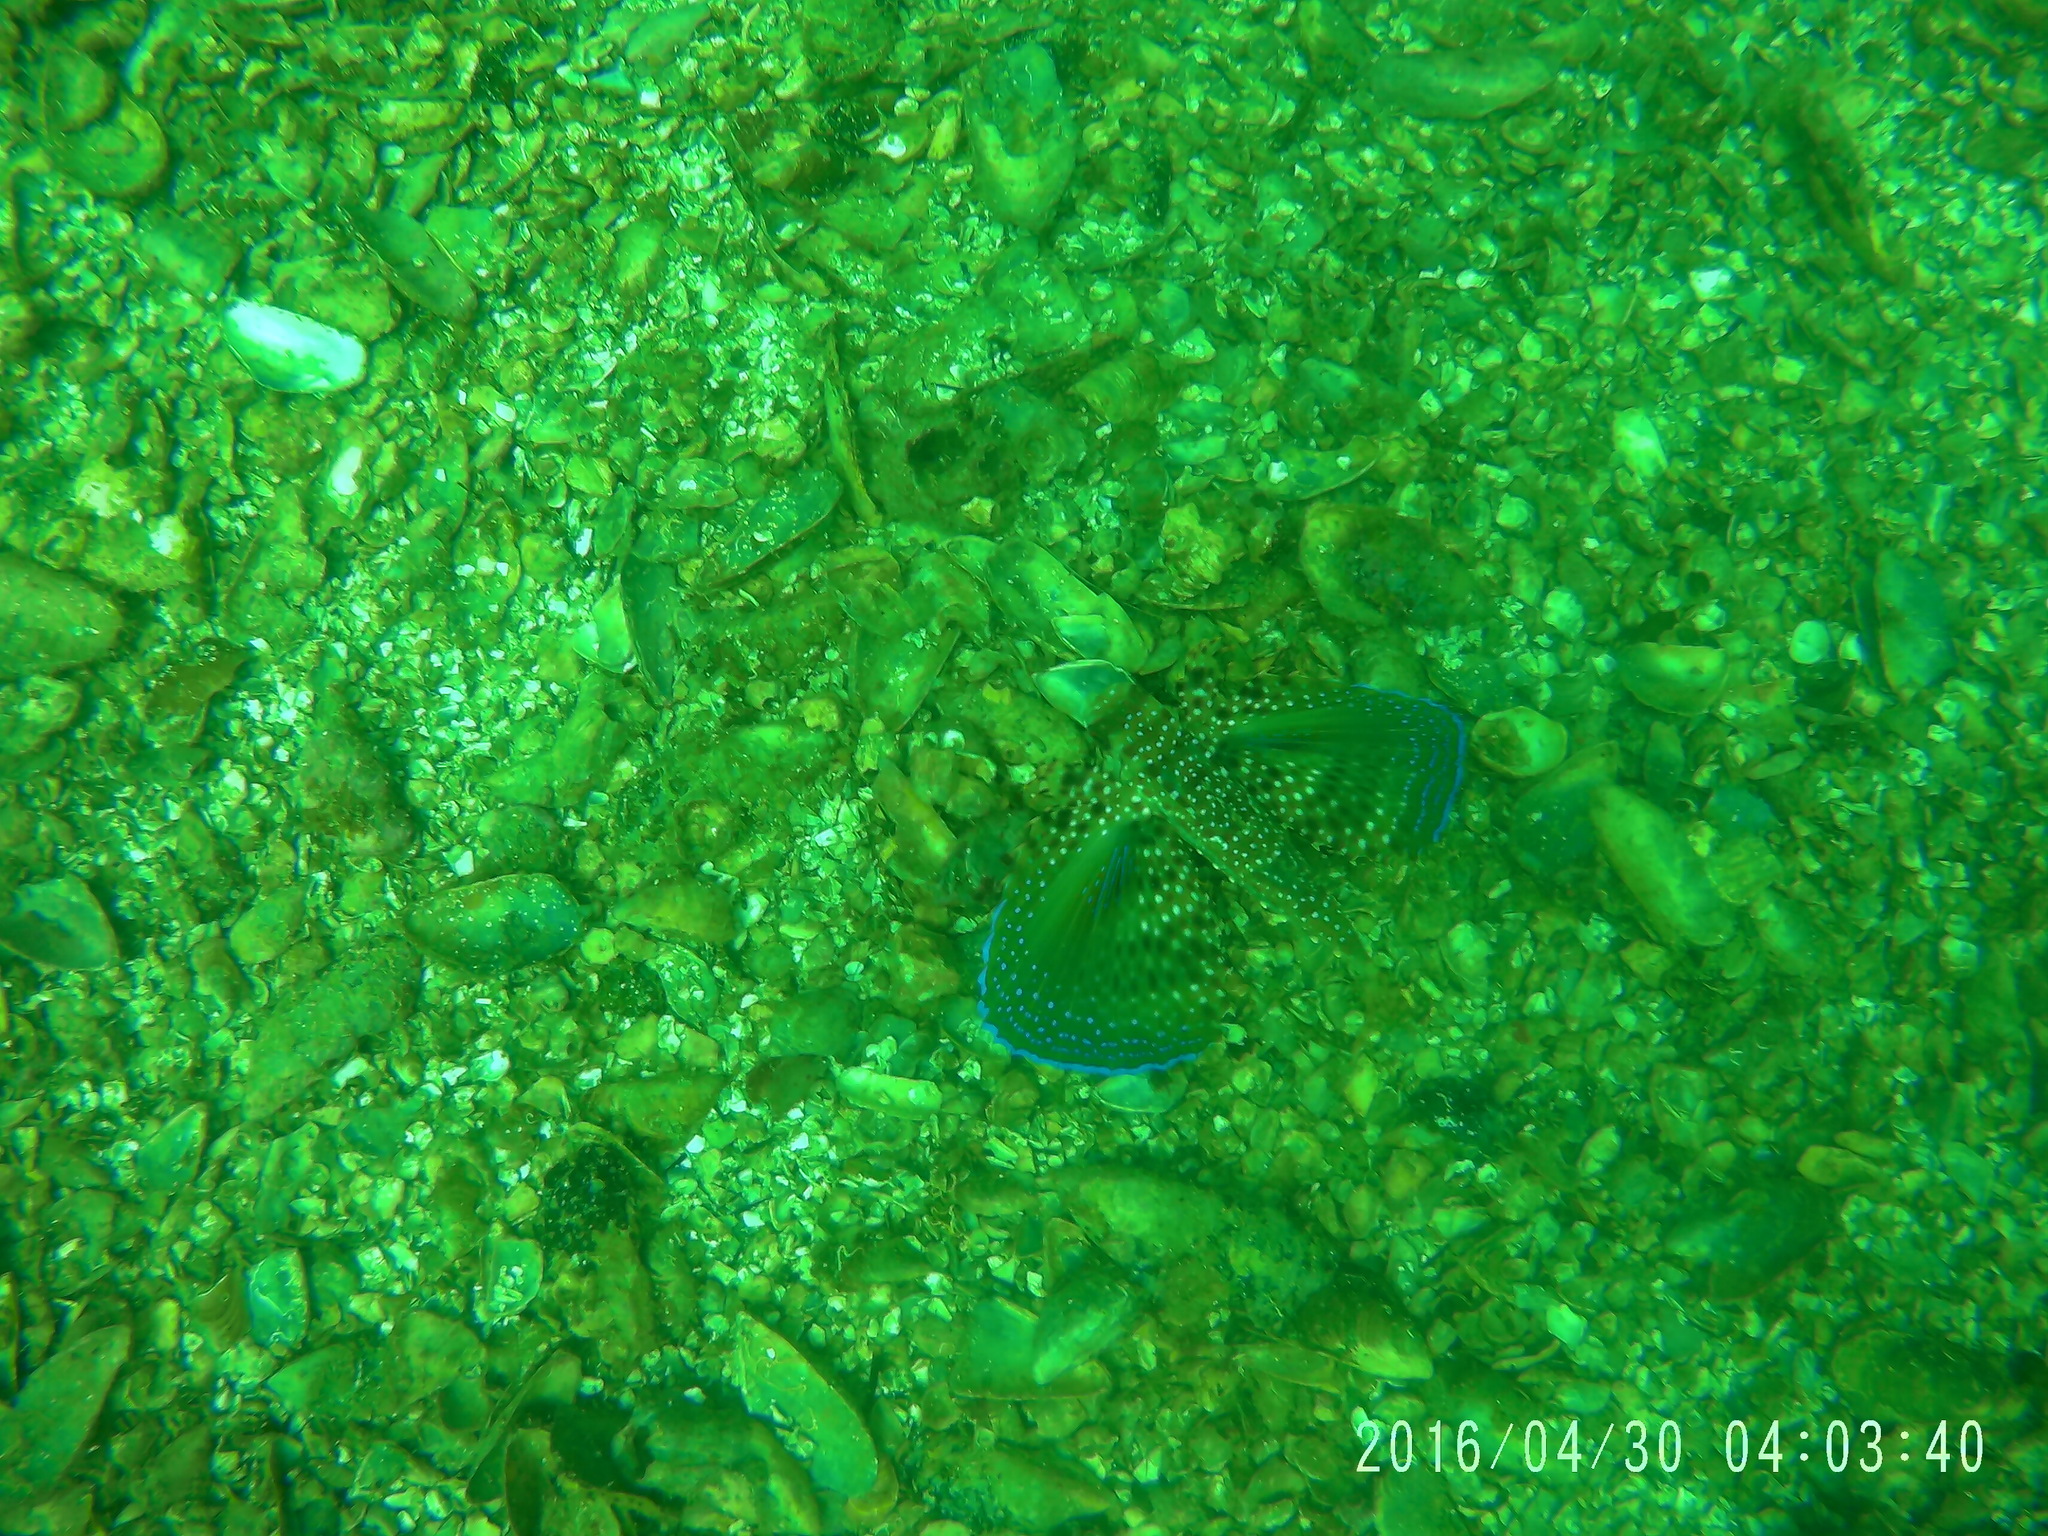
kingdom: Animalia
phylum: Chordata
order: Scorpaeniformes
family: Dactylopteridae
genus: Dactylopterus
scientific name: Dactylopterus volitans
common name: Flying gurnard
